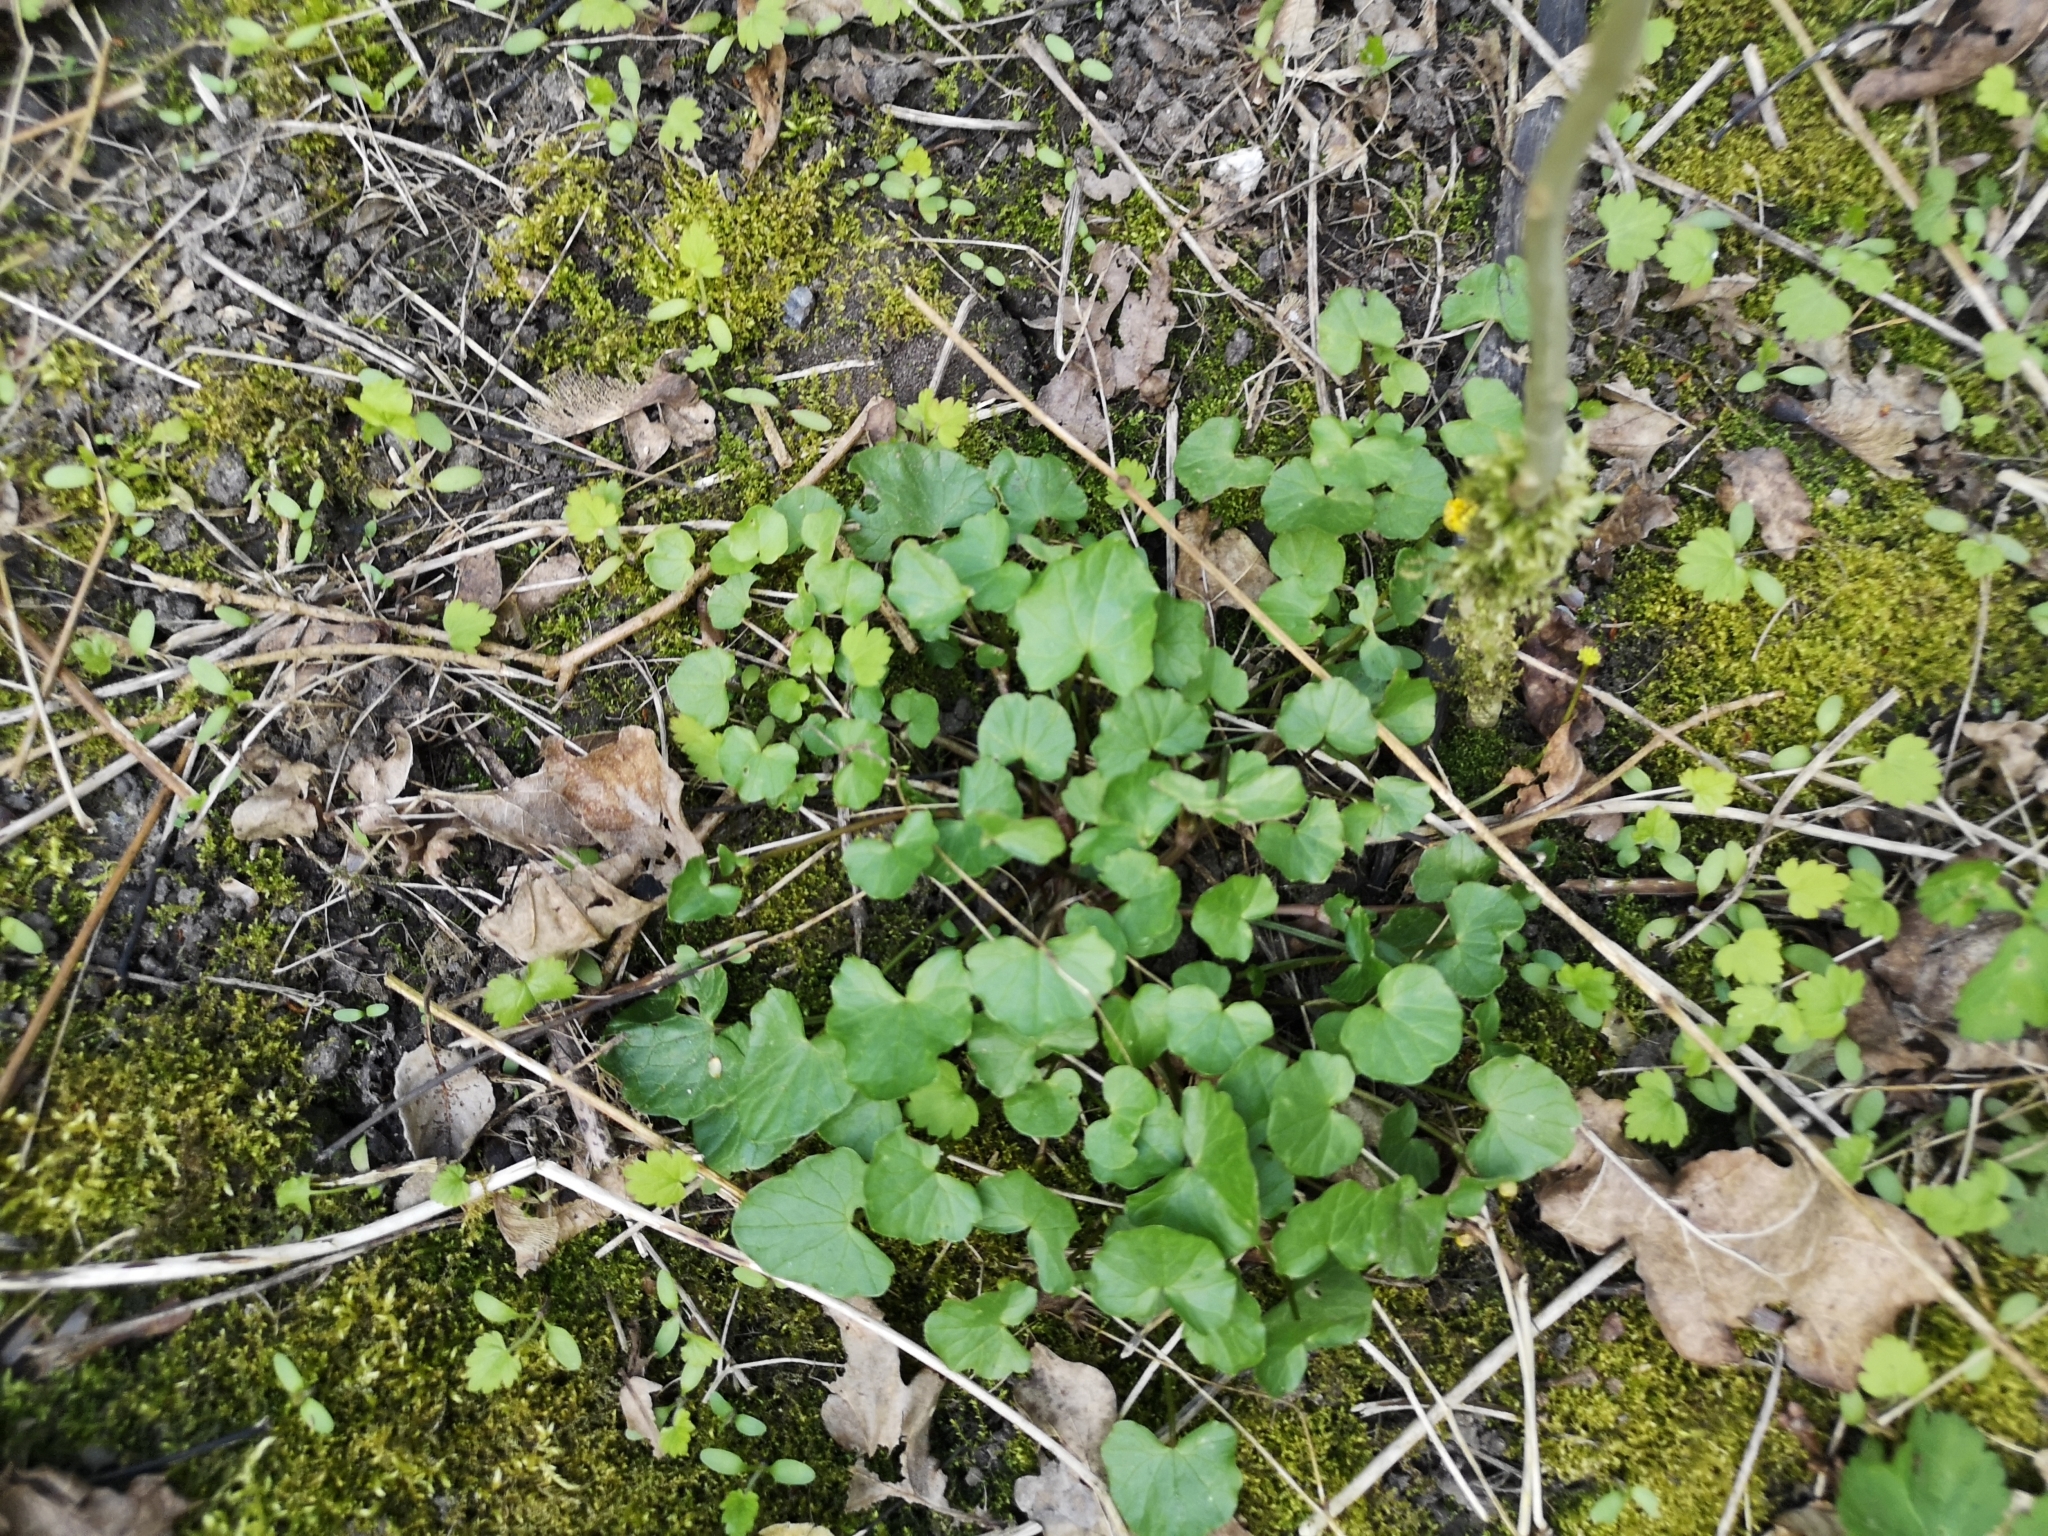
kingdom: Plantae
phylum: Tracheophyta
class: Magnoliopsida
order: Ranunculales
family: Ranunculaceae
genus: Ficaria
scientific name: Ficaria verna
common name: Lesser celandine
